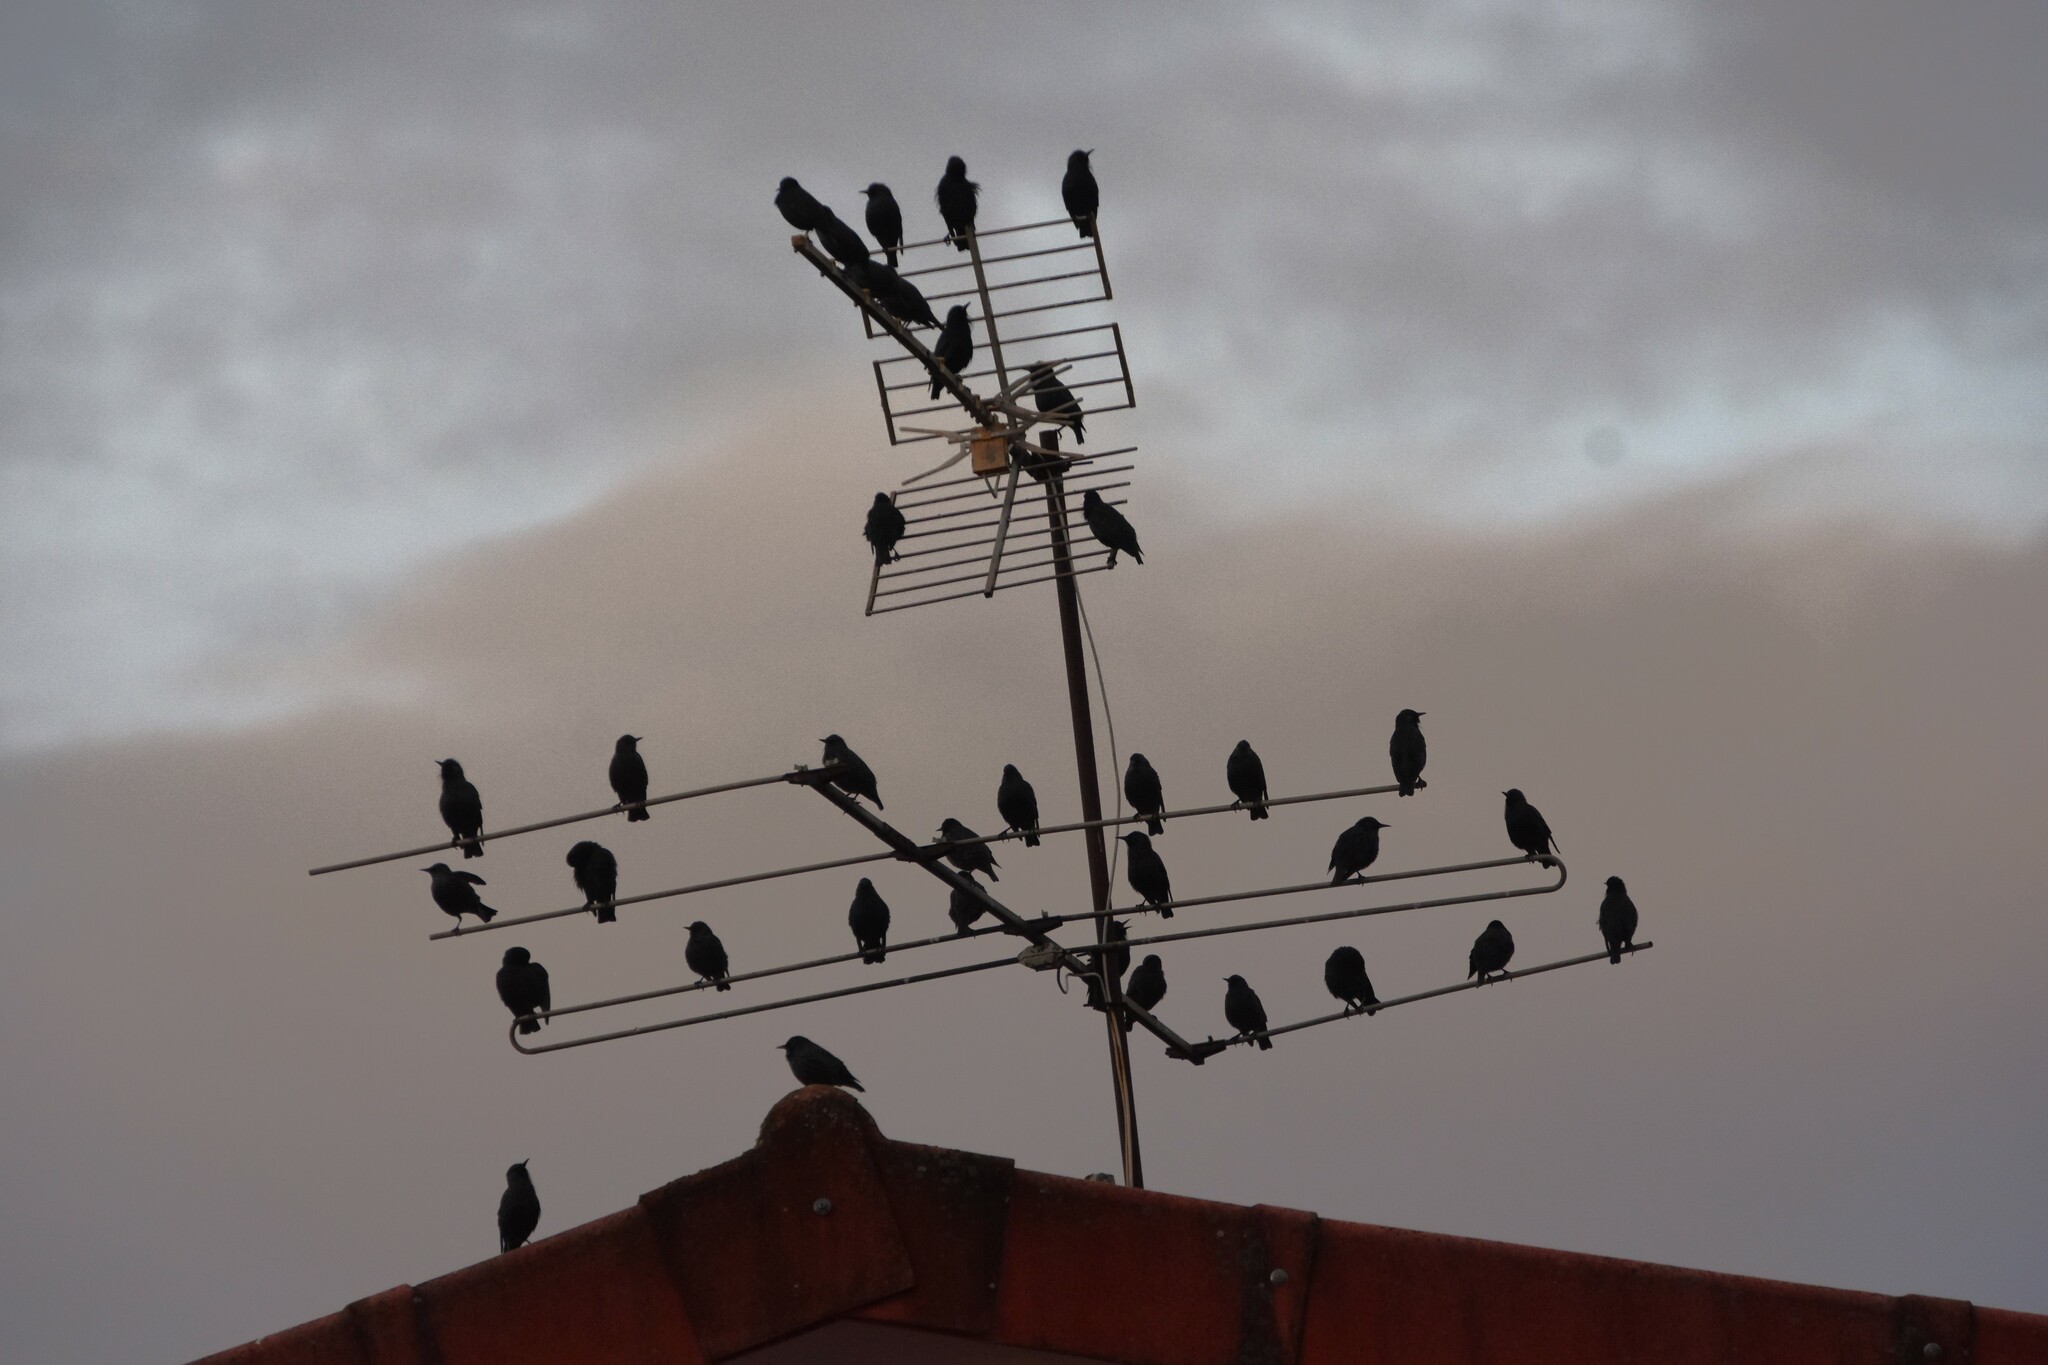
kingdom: Animalia
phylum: Chordata
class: Aves
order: Passeriformes
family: Sturnidae
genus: Sturnus
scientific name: Sturnus unicolor
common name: Spotless starling
